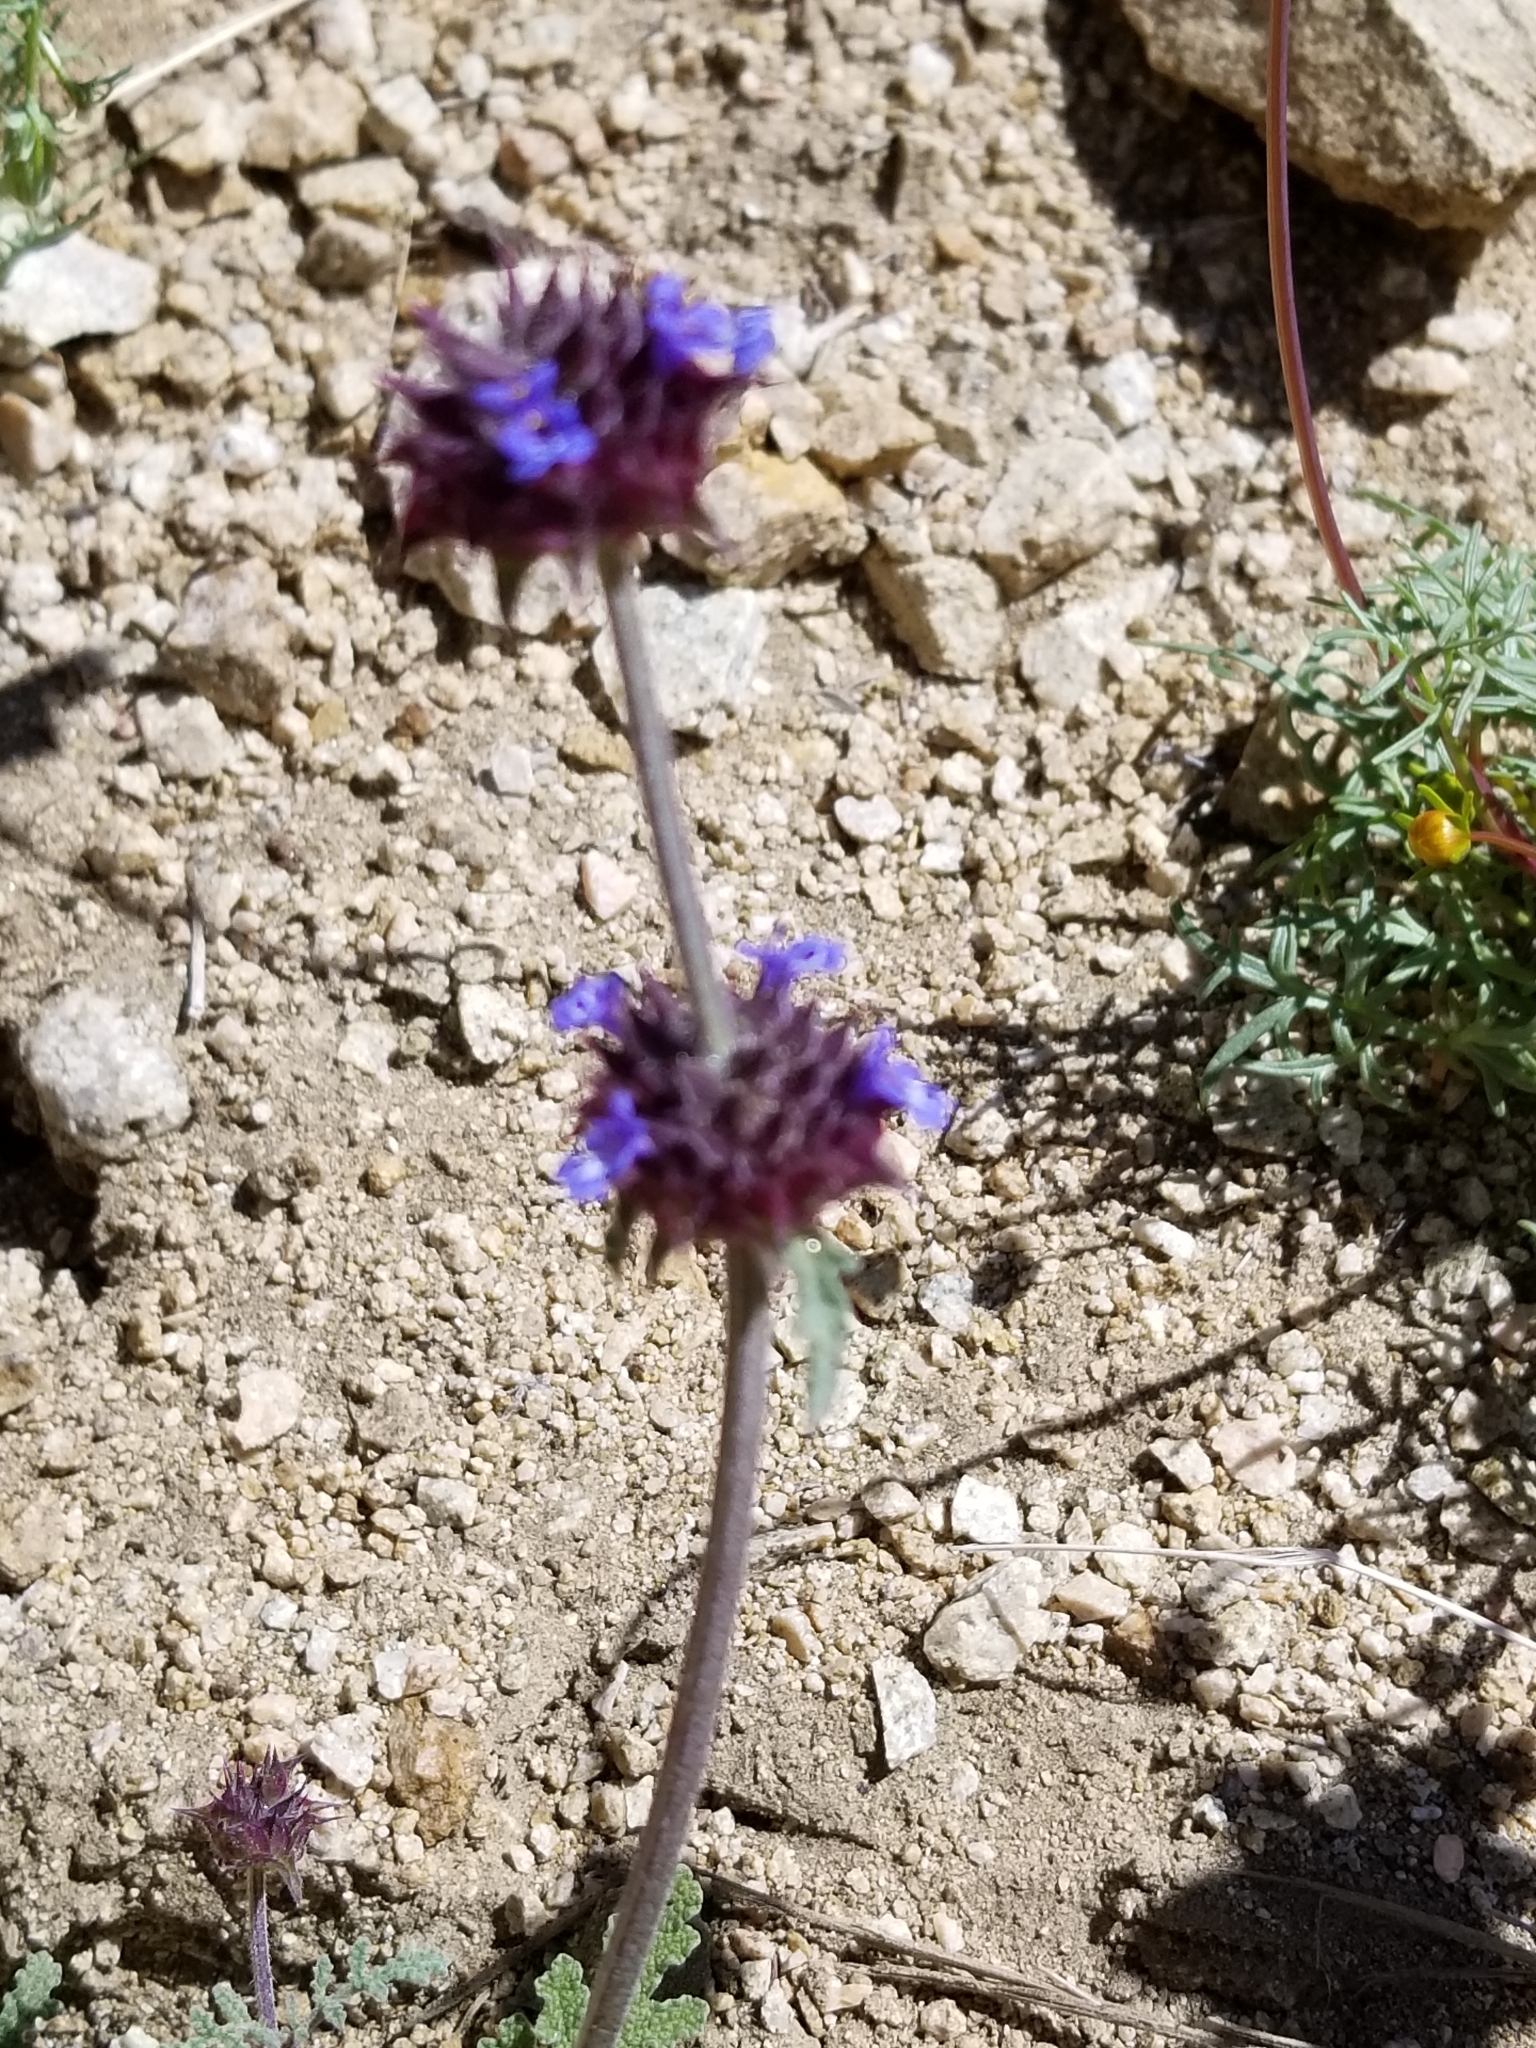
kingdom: Plantae
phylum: Tracheophyta
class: Magnoliopsida
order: Lamiales
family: Lamiaceae
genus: Salvia
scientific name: Salvia columbariae
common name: Chia
